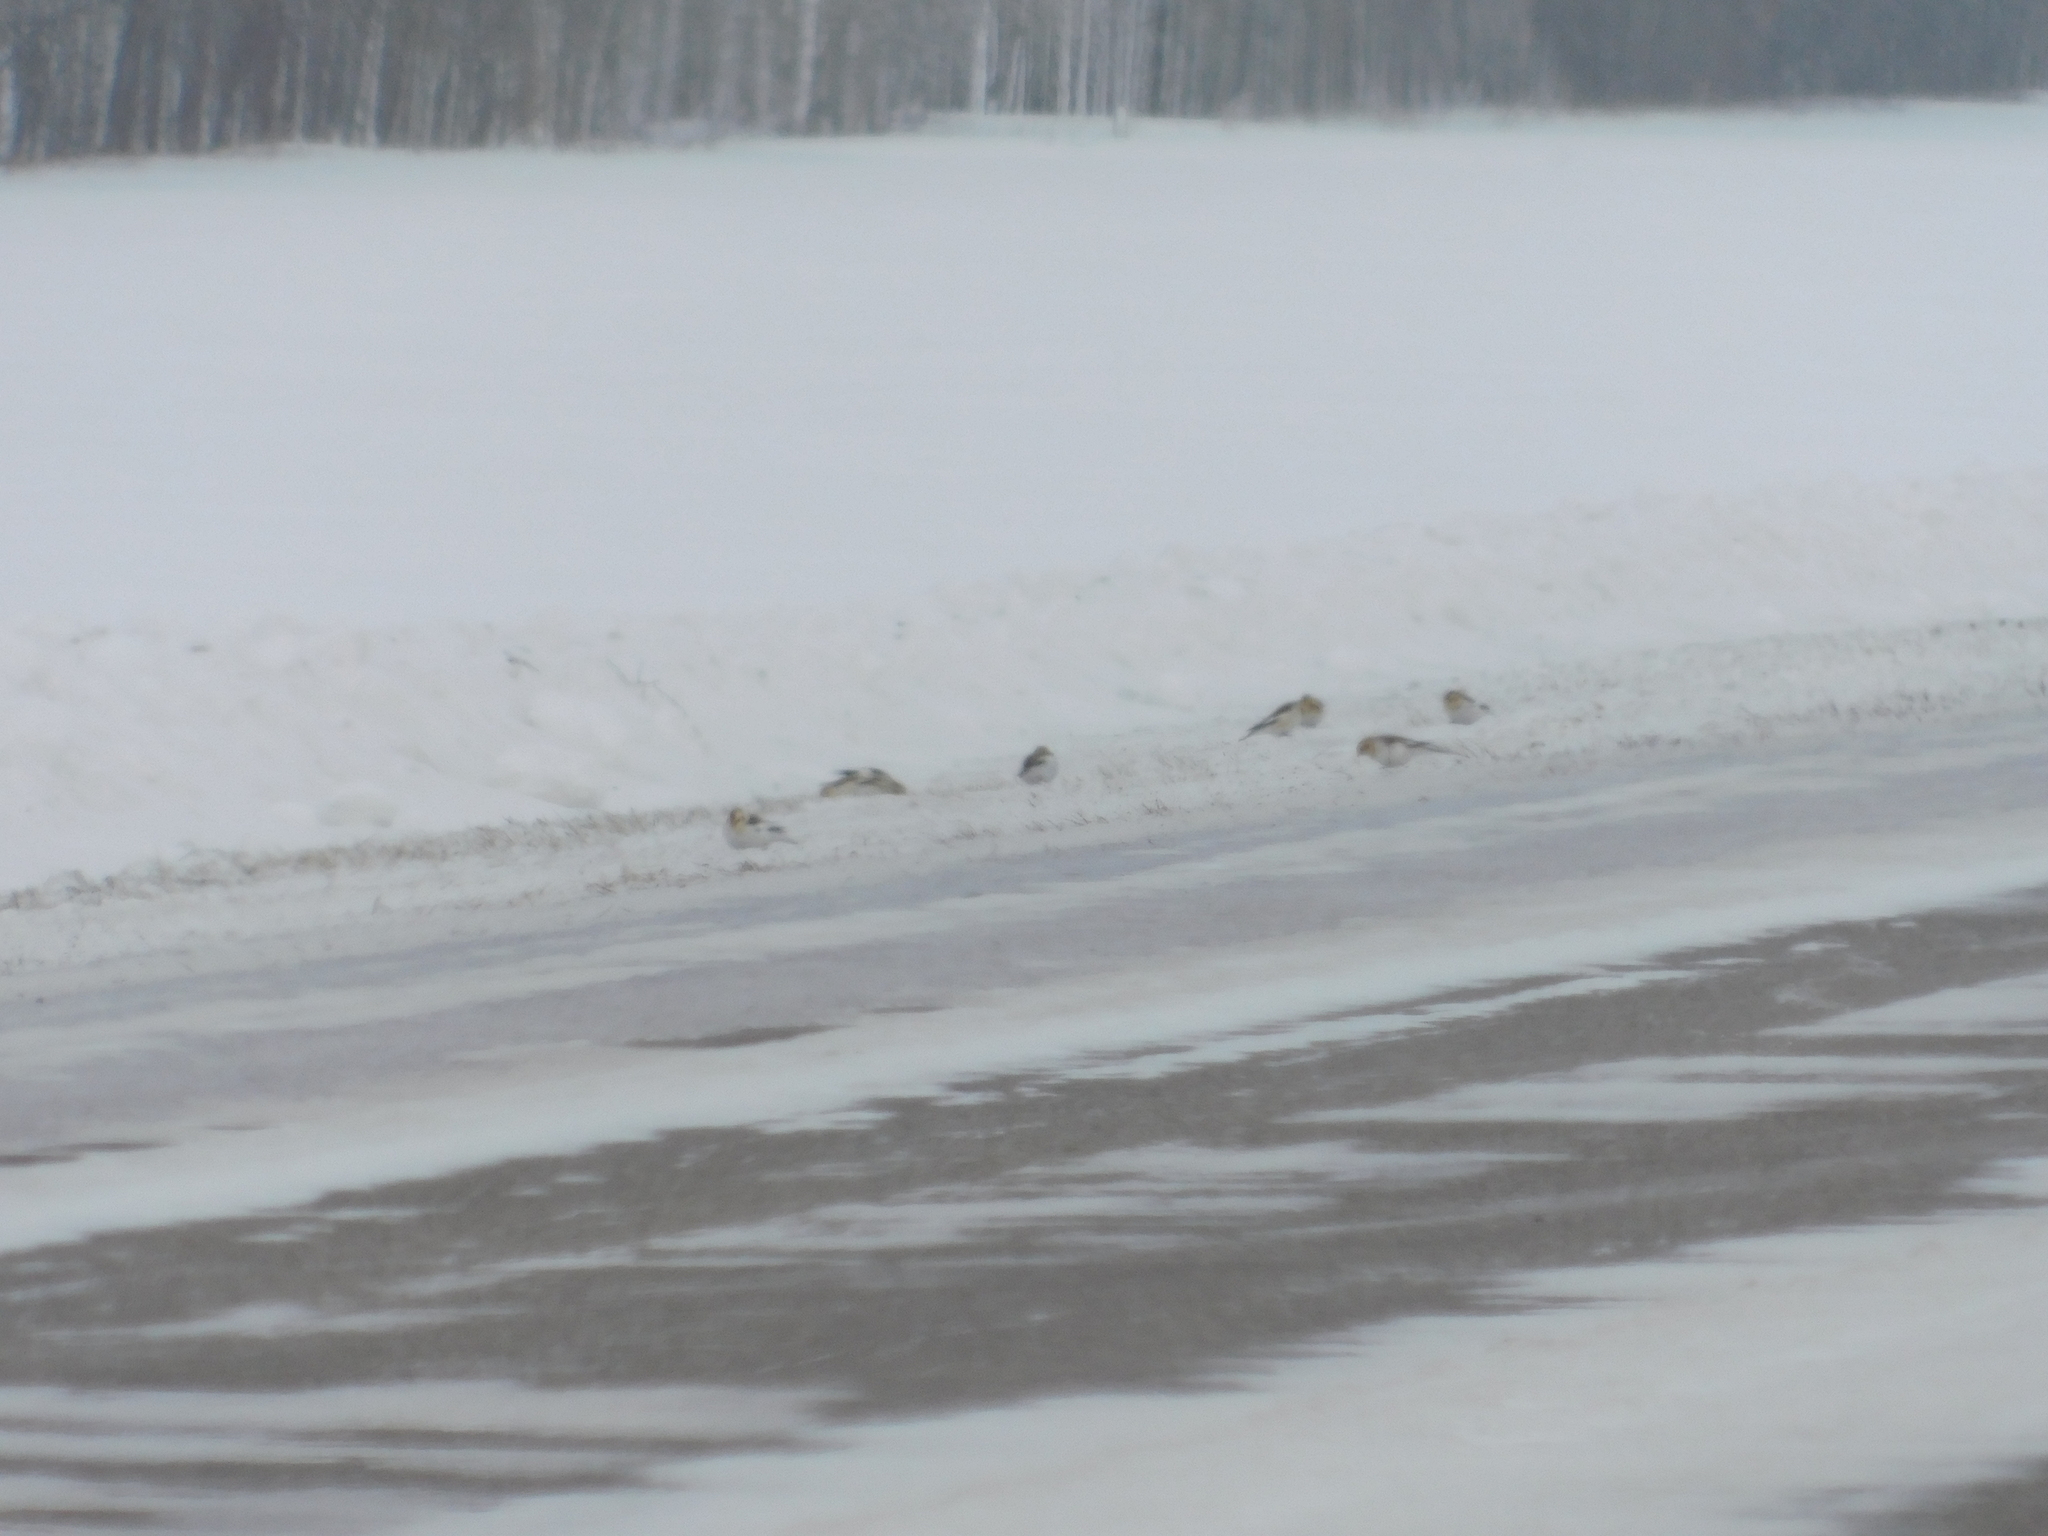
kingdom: Animalia
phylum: Chordata
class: Aves
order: Passeriformes
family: Calcariidae
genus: Plectrophenax
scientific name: Plectrophenax nivalis
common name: Snow bunting
